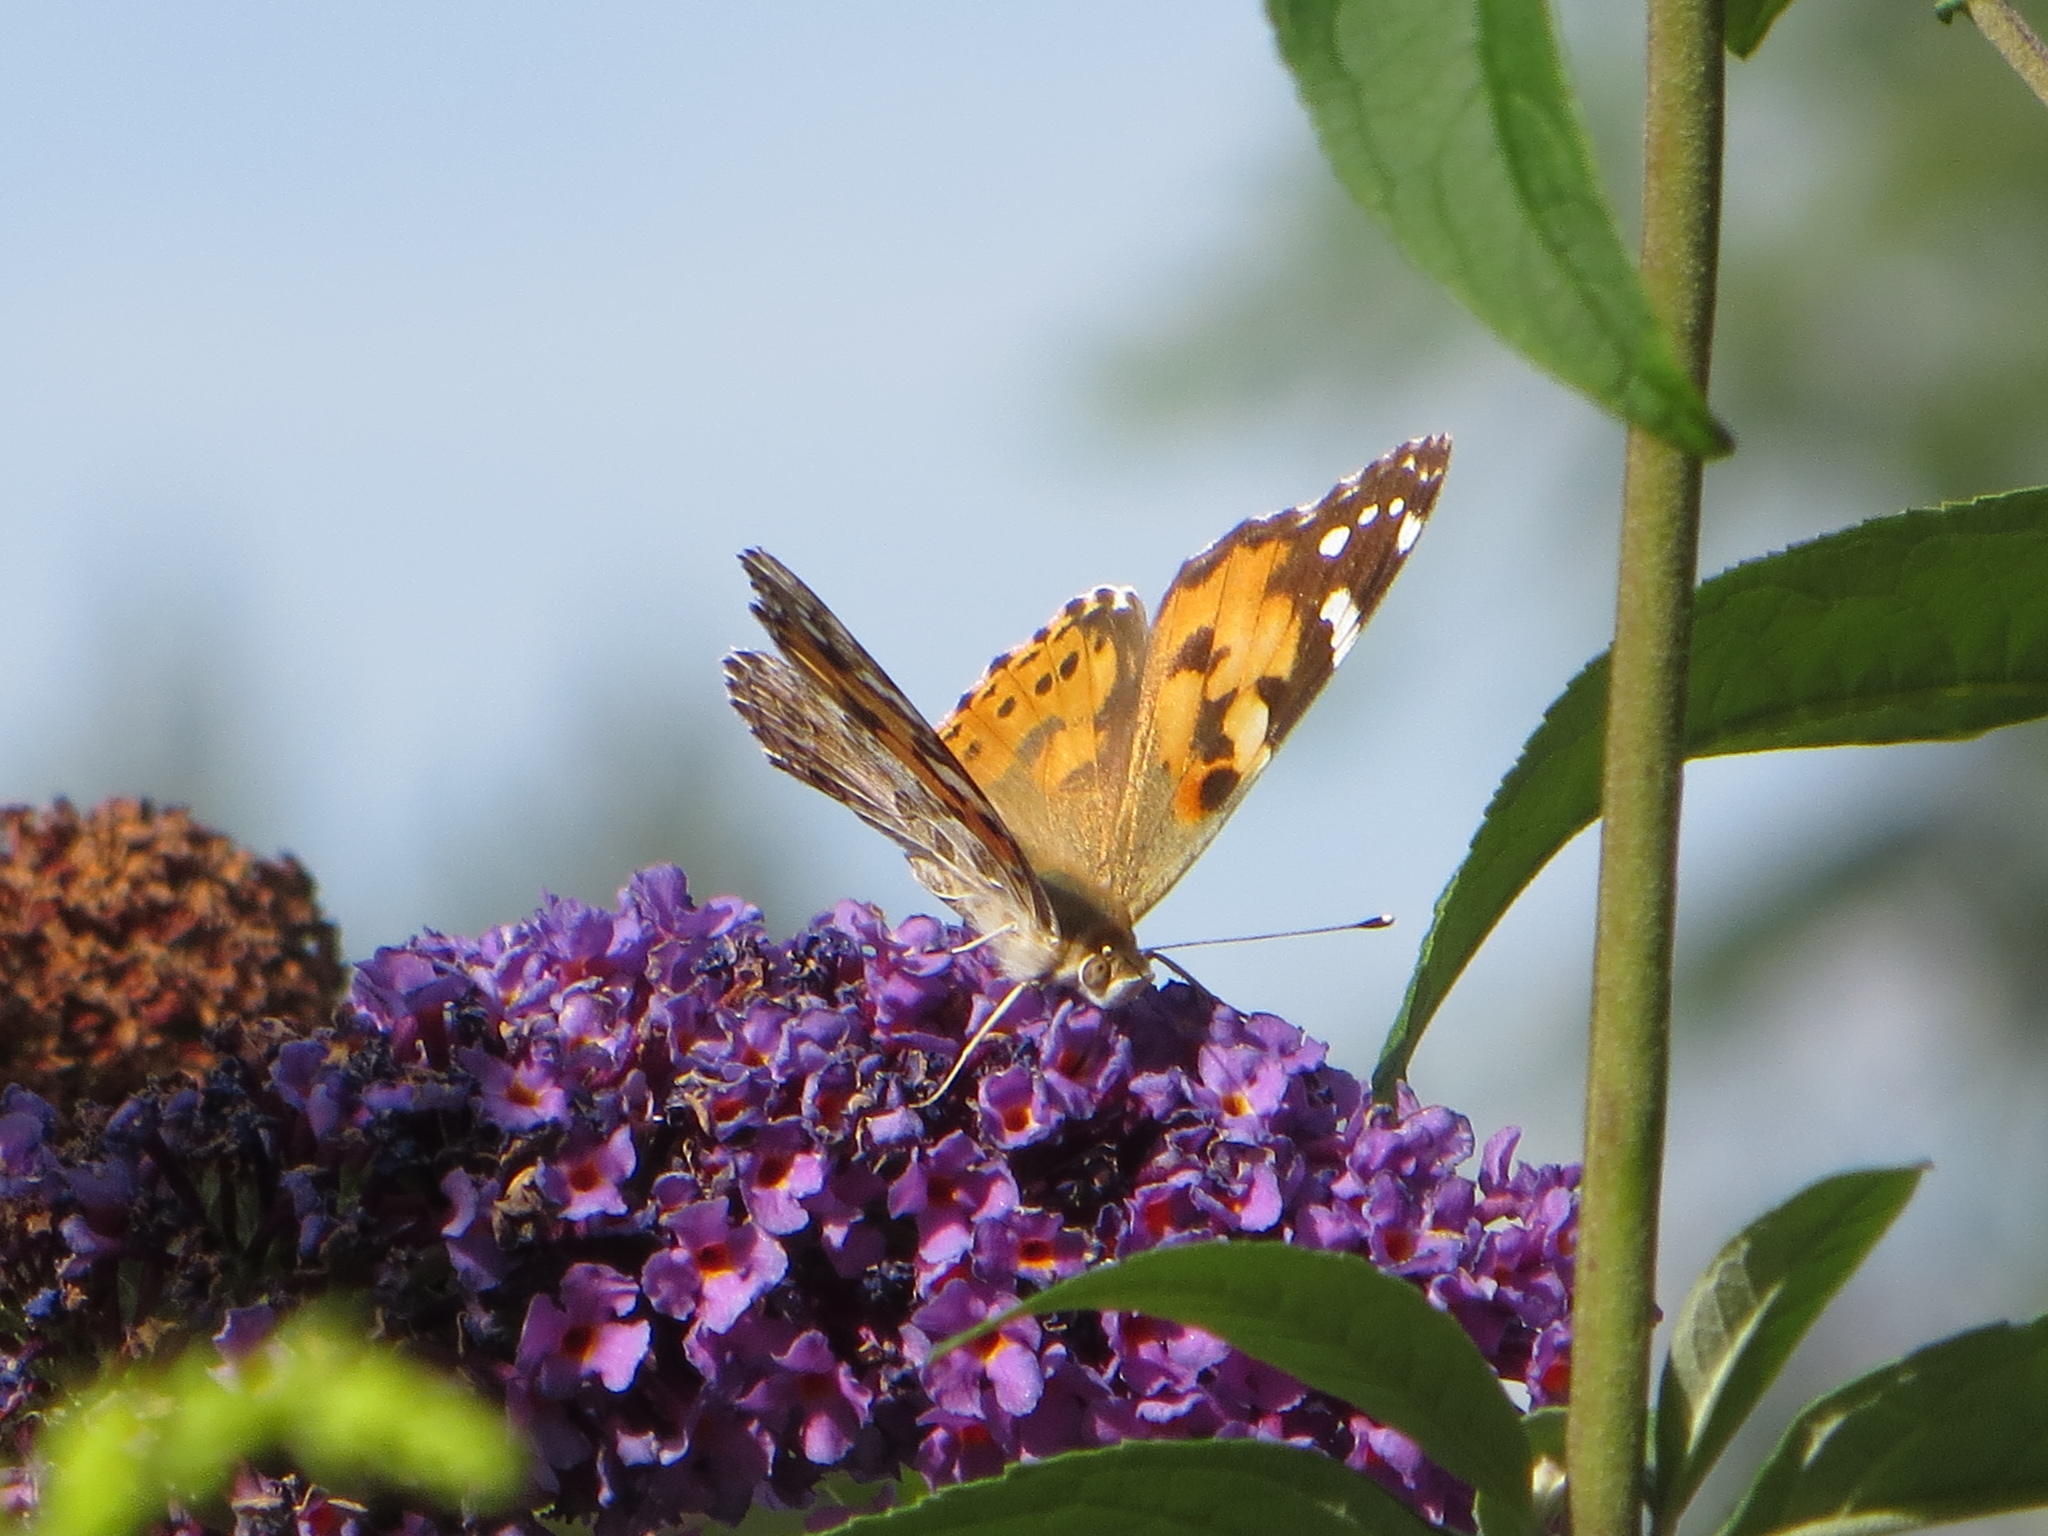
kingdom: Animalia
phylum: Arthropoda
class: Insecta
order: Lepidoptera
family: Nymphalidae
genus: Vanessa
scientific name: Vanessa cardui
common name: Painted lady
